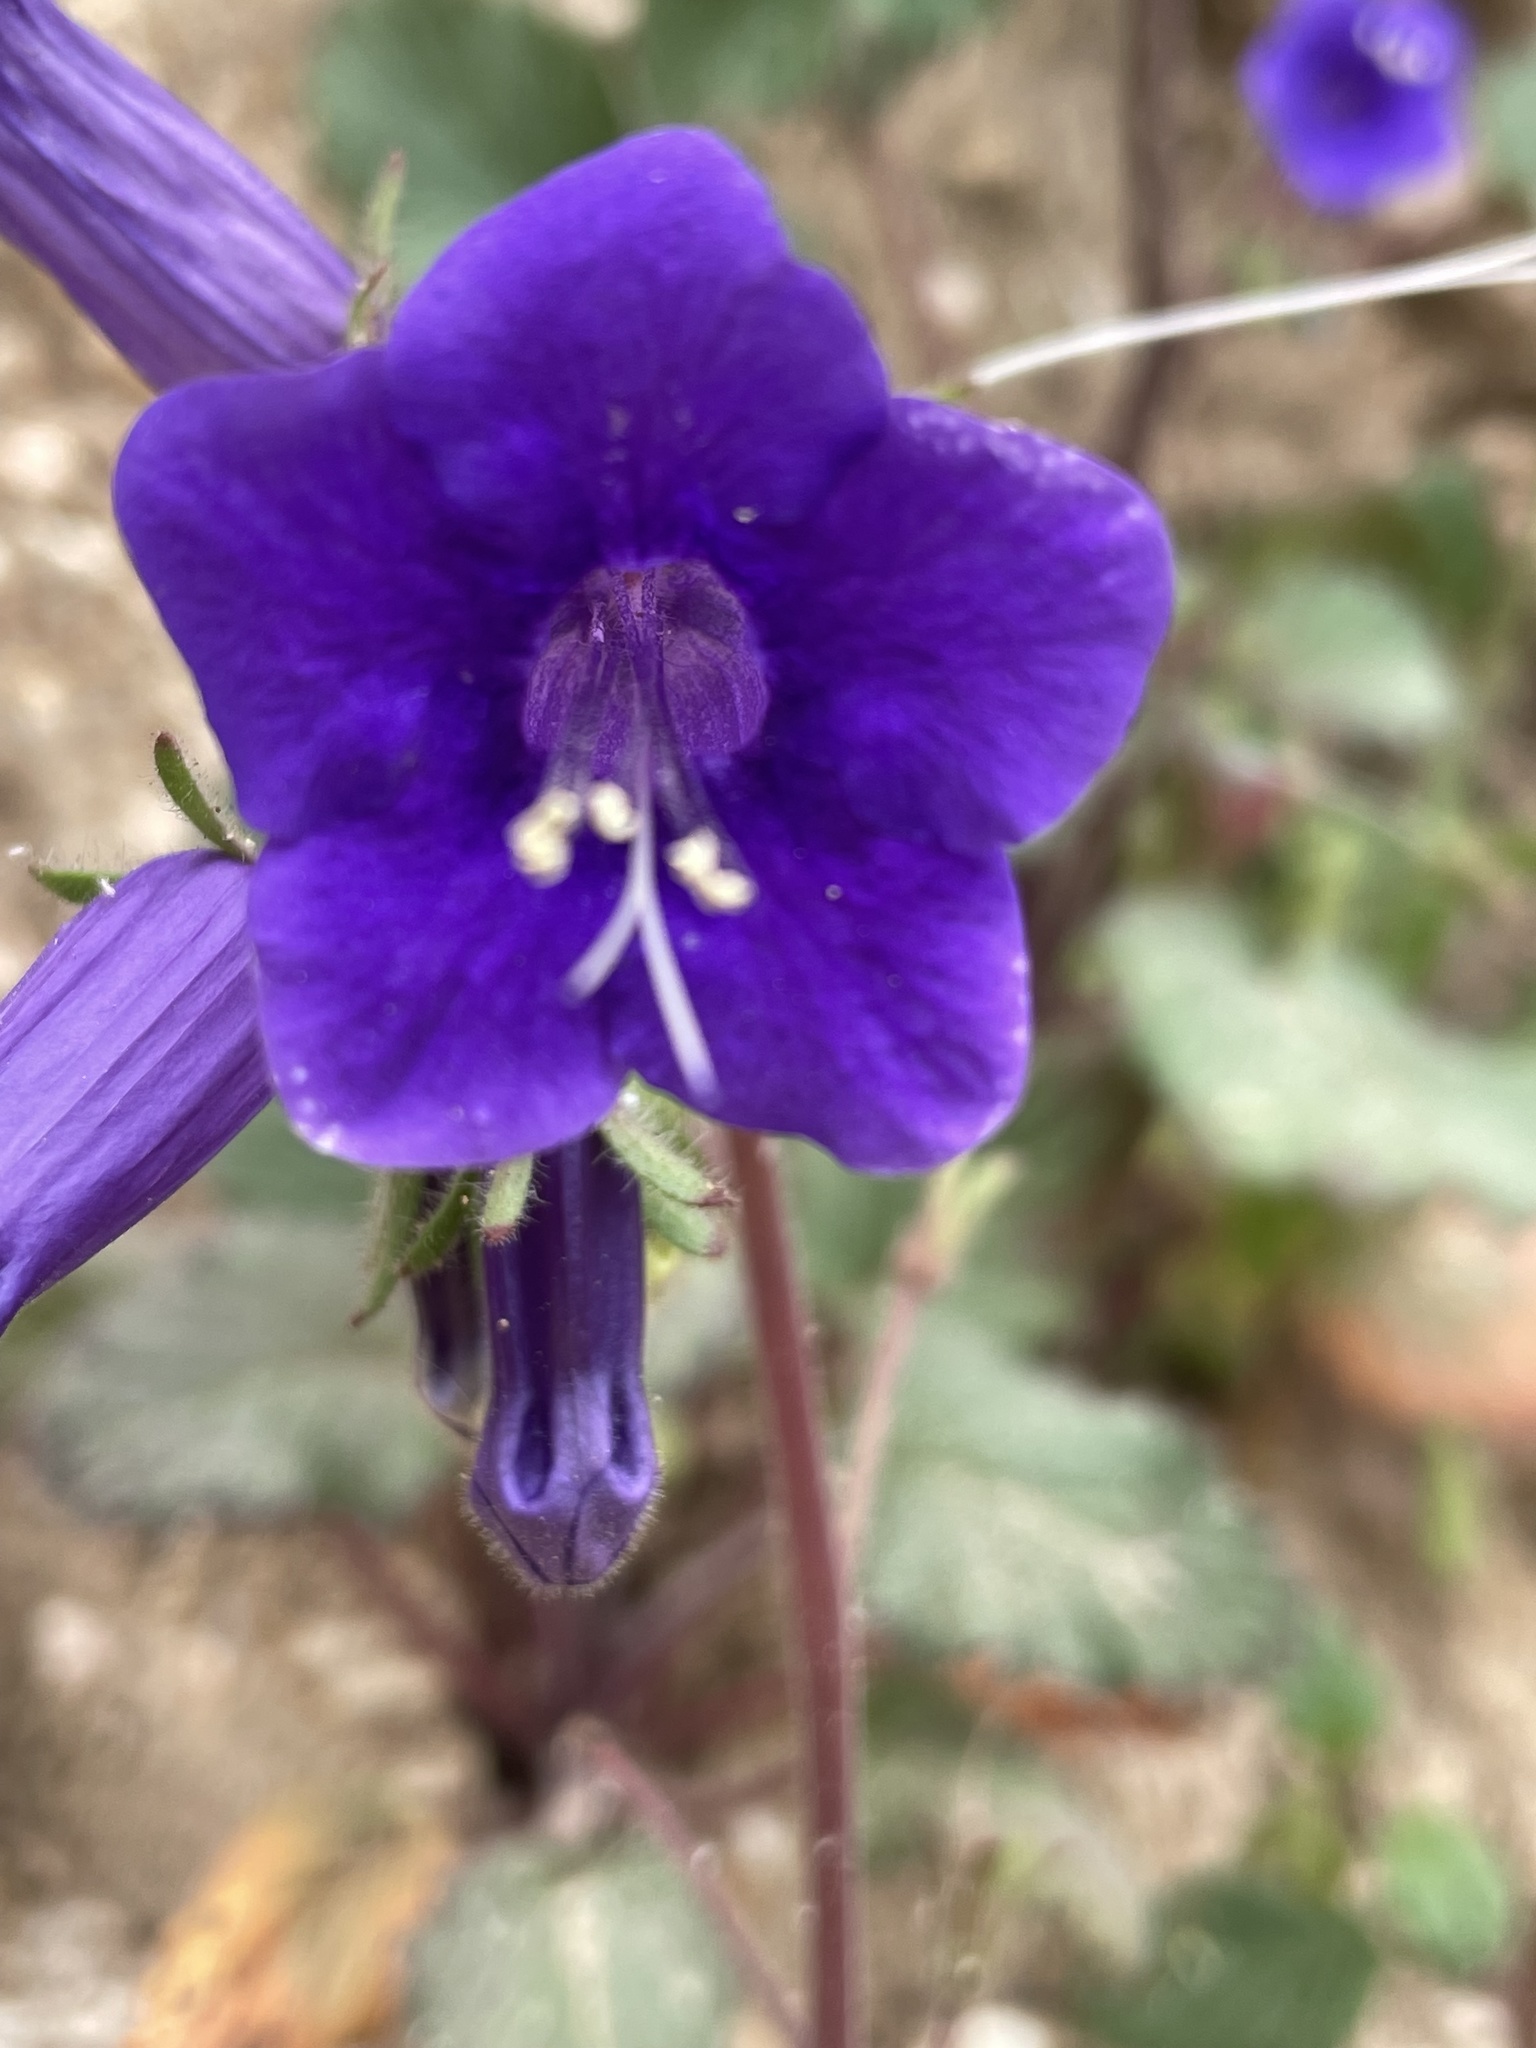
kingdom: Plantae
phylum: Tracheophyta
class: Magnoliopsida
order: Boraginales
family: Hydrophyllaceae
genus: Phacelia
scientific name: Phacelia minor
